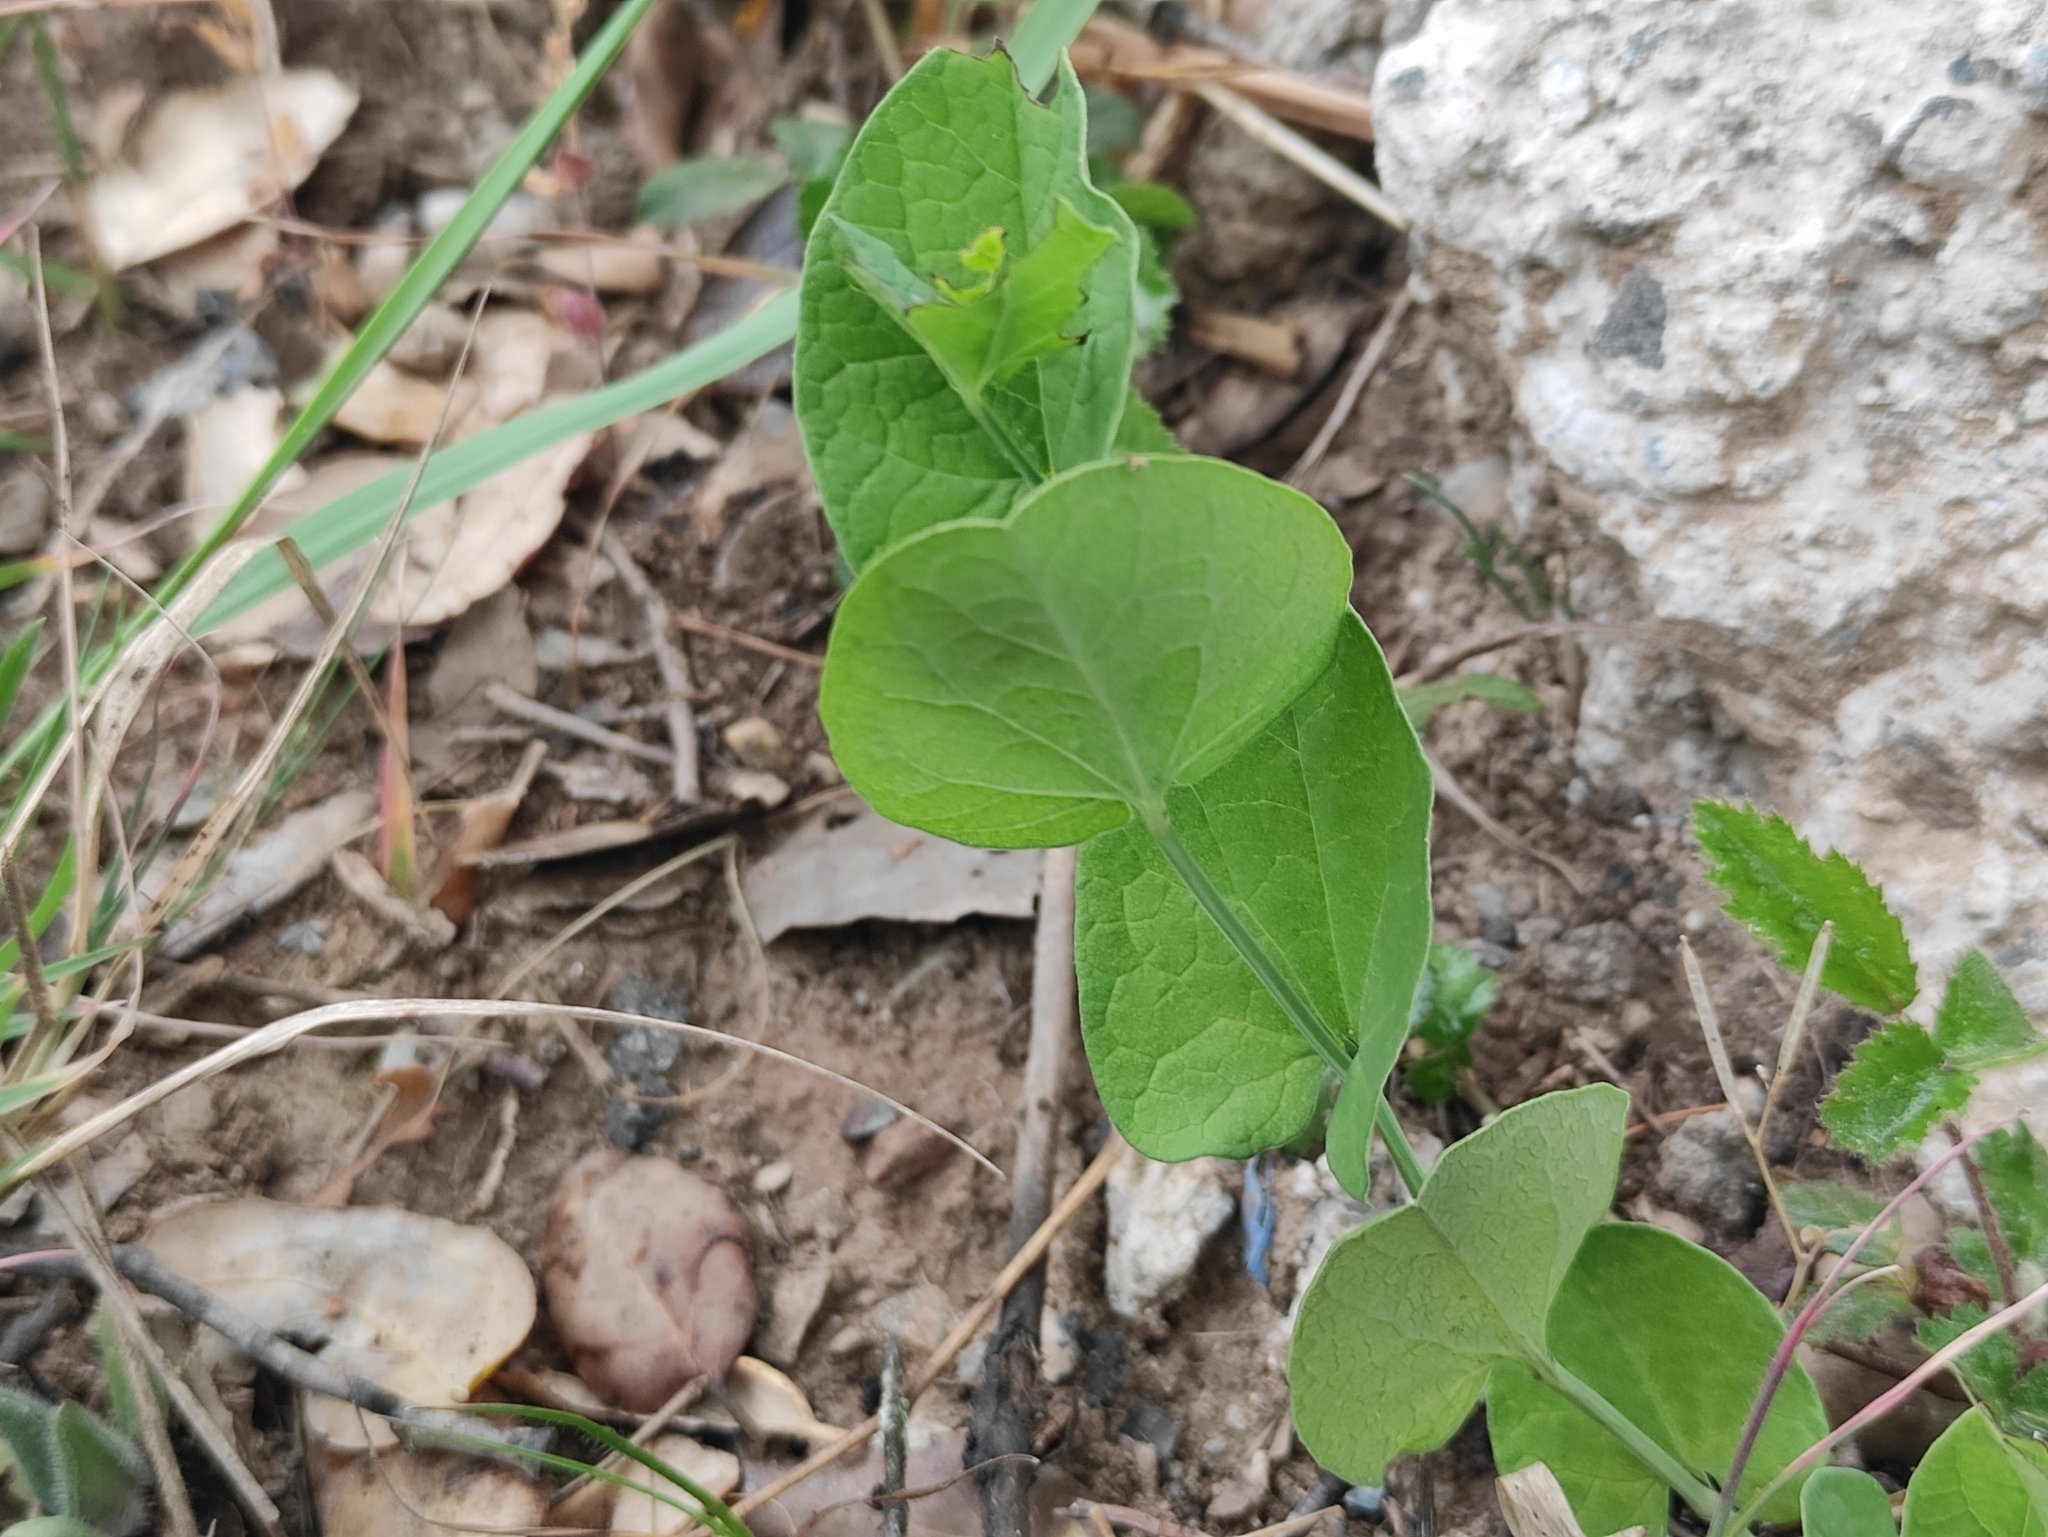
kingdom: Plantae
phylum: Tracheophyta
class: Magnoliopsida
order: Piperales
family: Aristolochiaceae
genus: Aristolochia
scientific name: Aristolochia rotunda
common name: Smearwort
